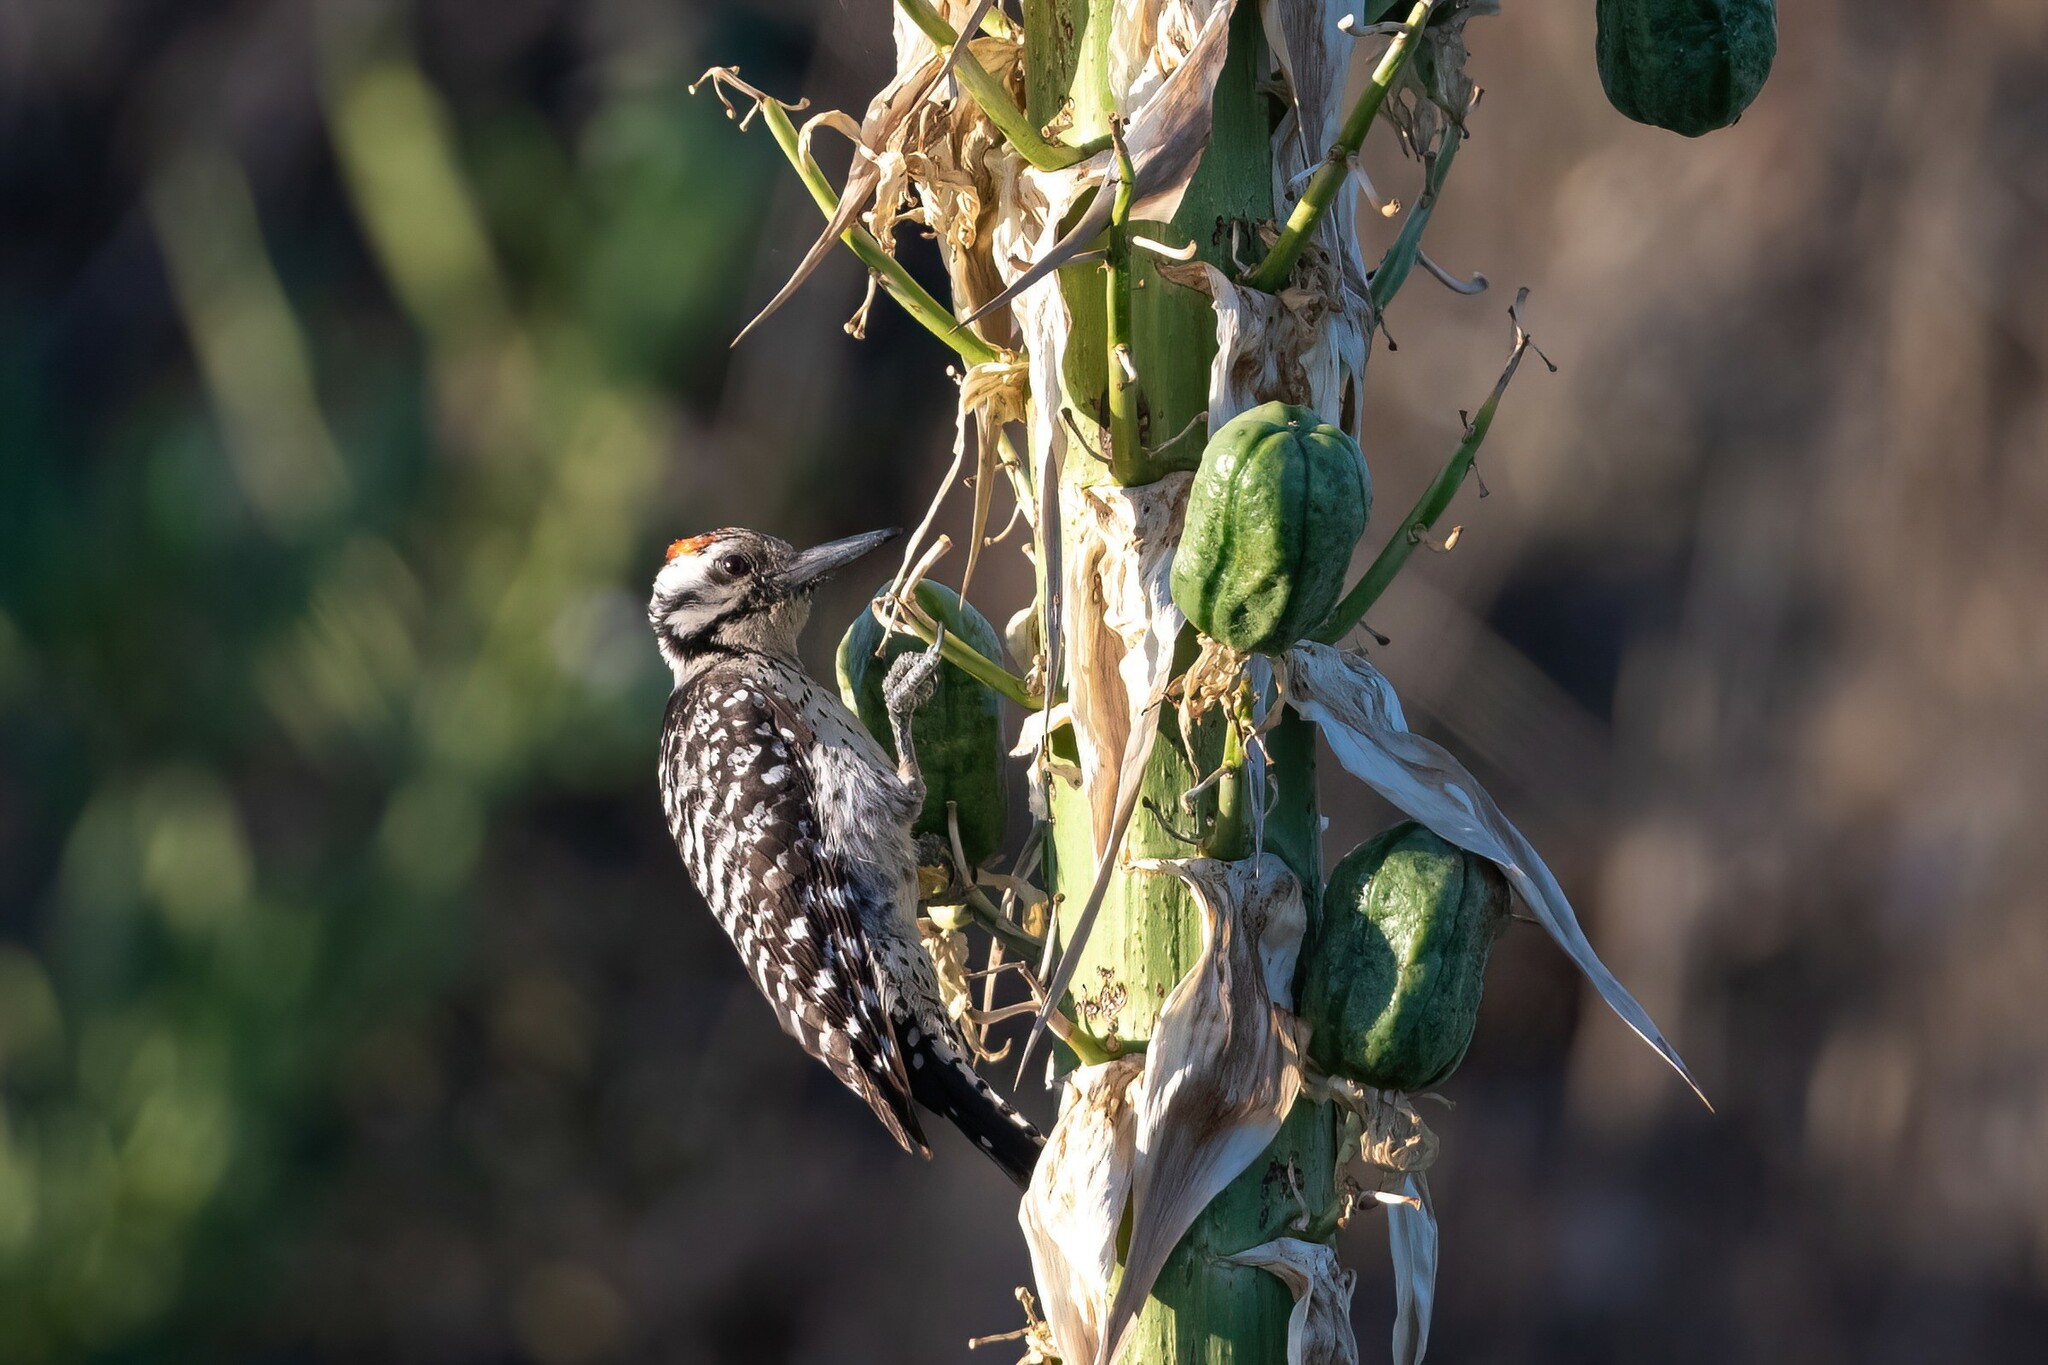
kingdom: Animalia
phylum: Chordata
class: Aves
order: Piciformes
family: Picidae
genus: Dryobates
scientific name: Dryobates scalaris
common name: Ladder-backed woodpecker
